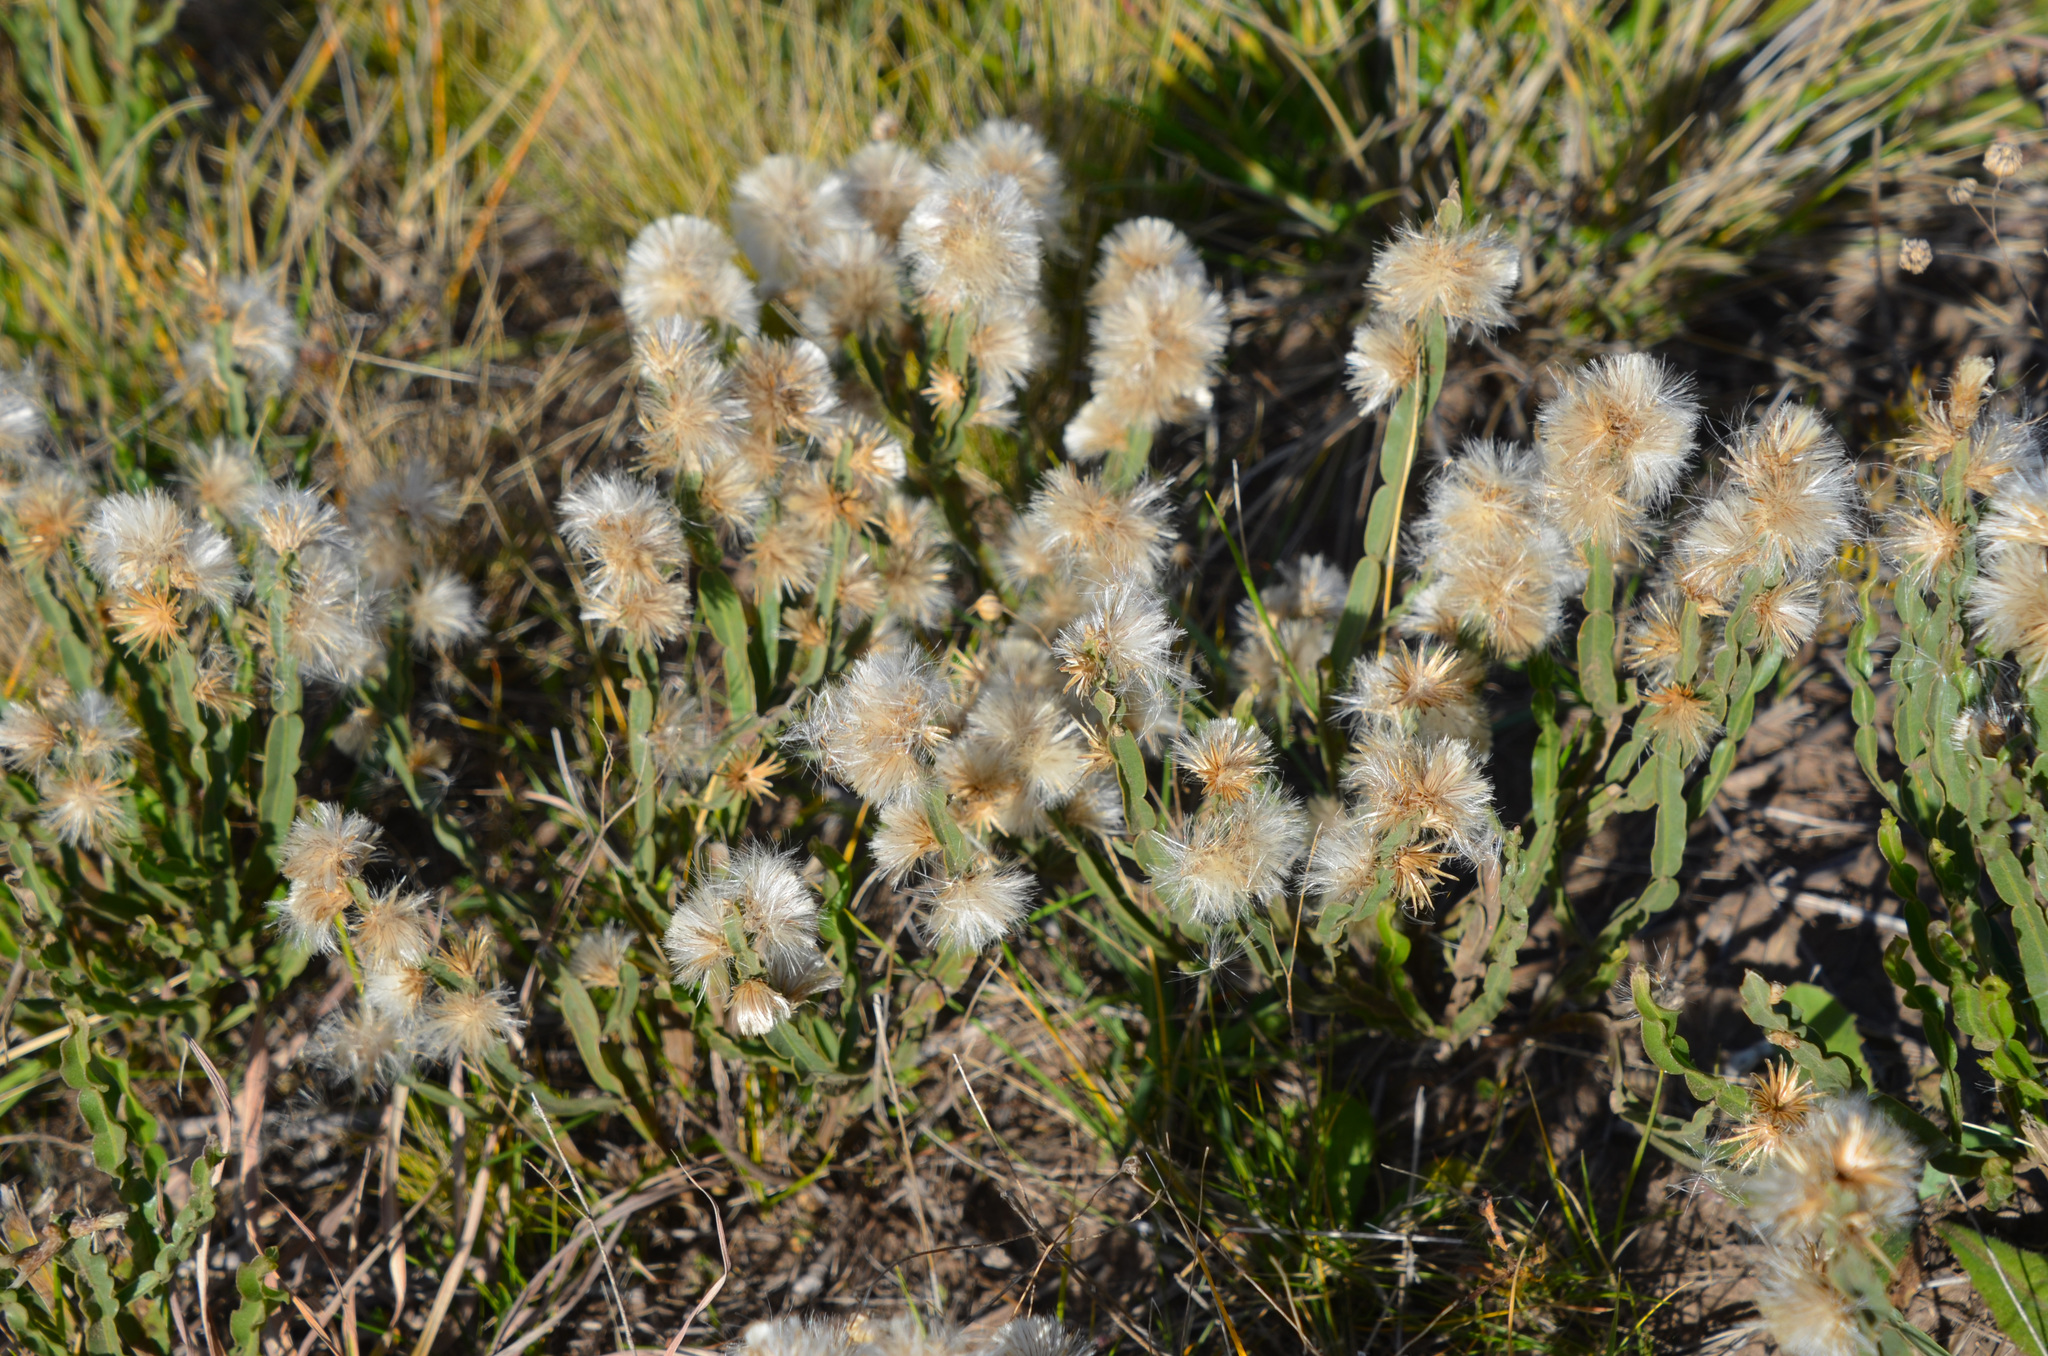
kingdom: Plantae
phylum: Tracheophyta
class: Magnoliopsida
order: Asterales
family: Asteraceae
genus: Baccharis
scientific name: Baccharis crispa
